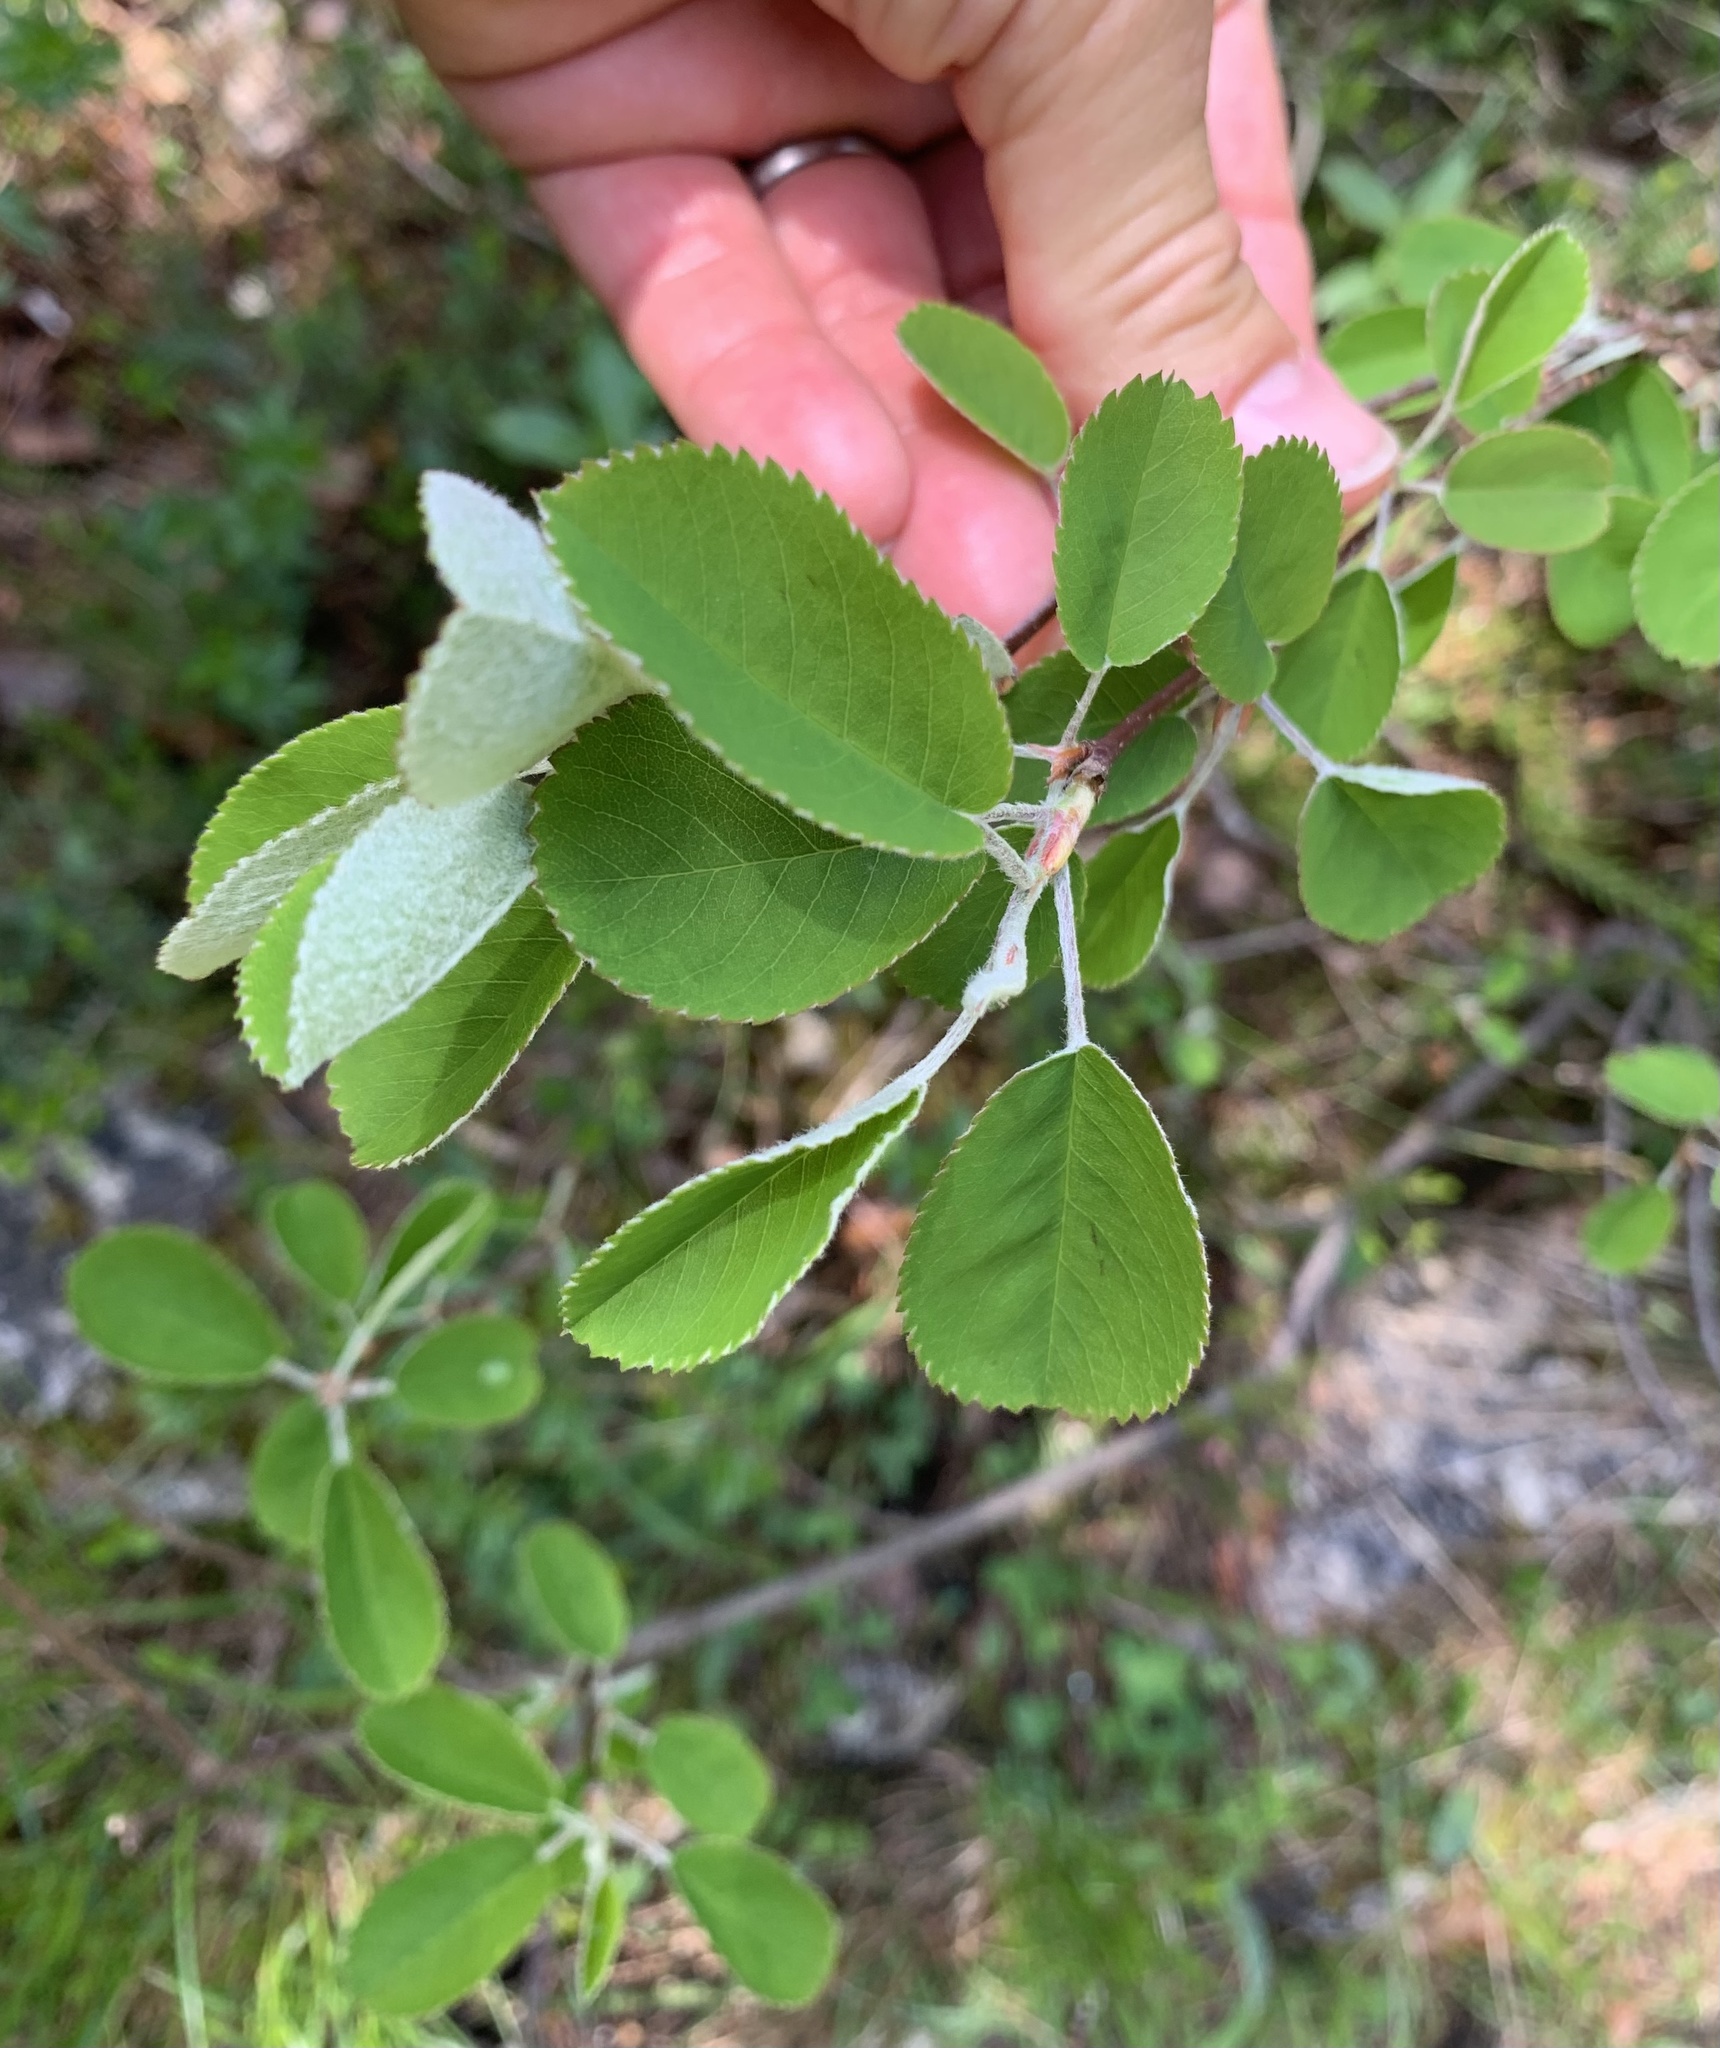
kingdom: Plantae
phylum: Tracheophyta
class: Magnoliopsida
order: Rosales
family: Rosaceae
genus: Amelanchier
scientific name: Amelanchier ovalis
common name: Serviceberry
